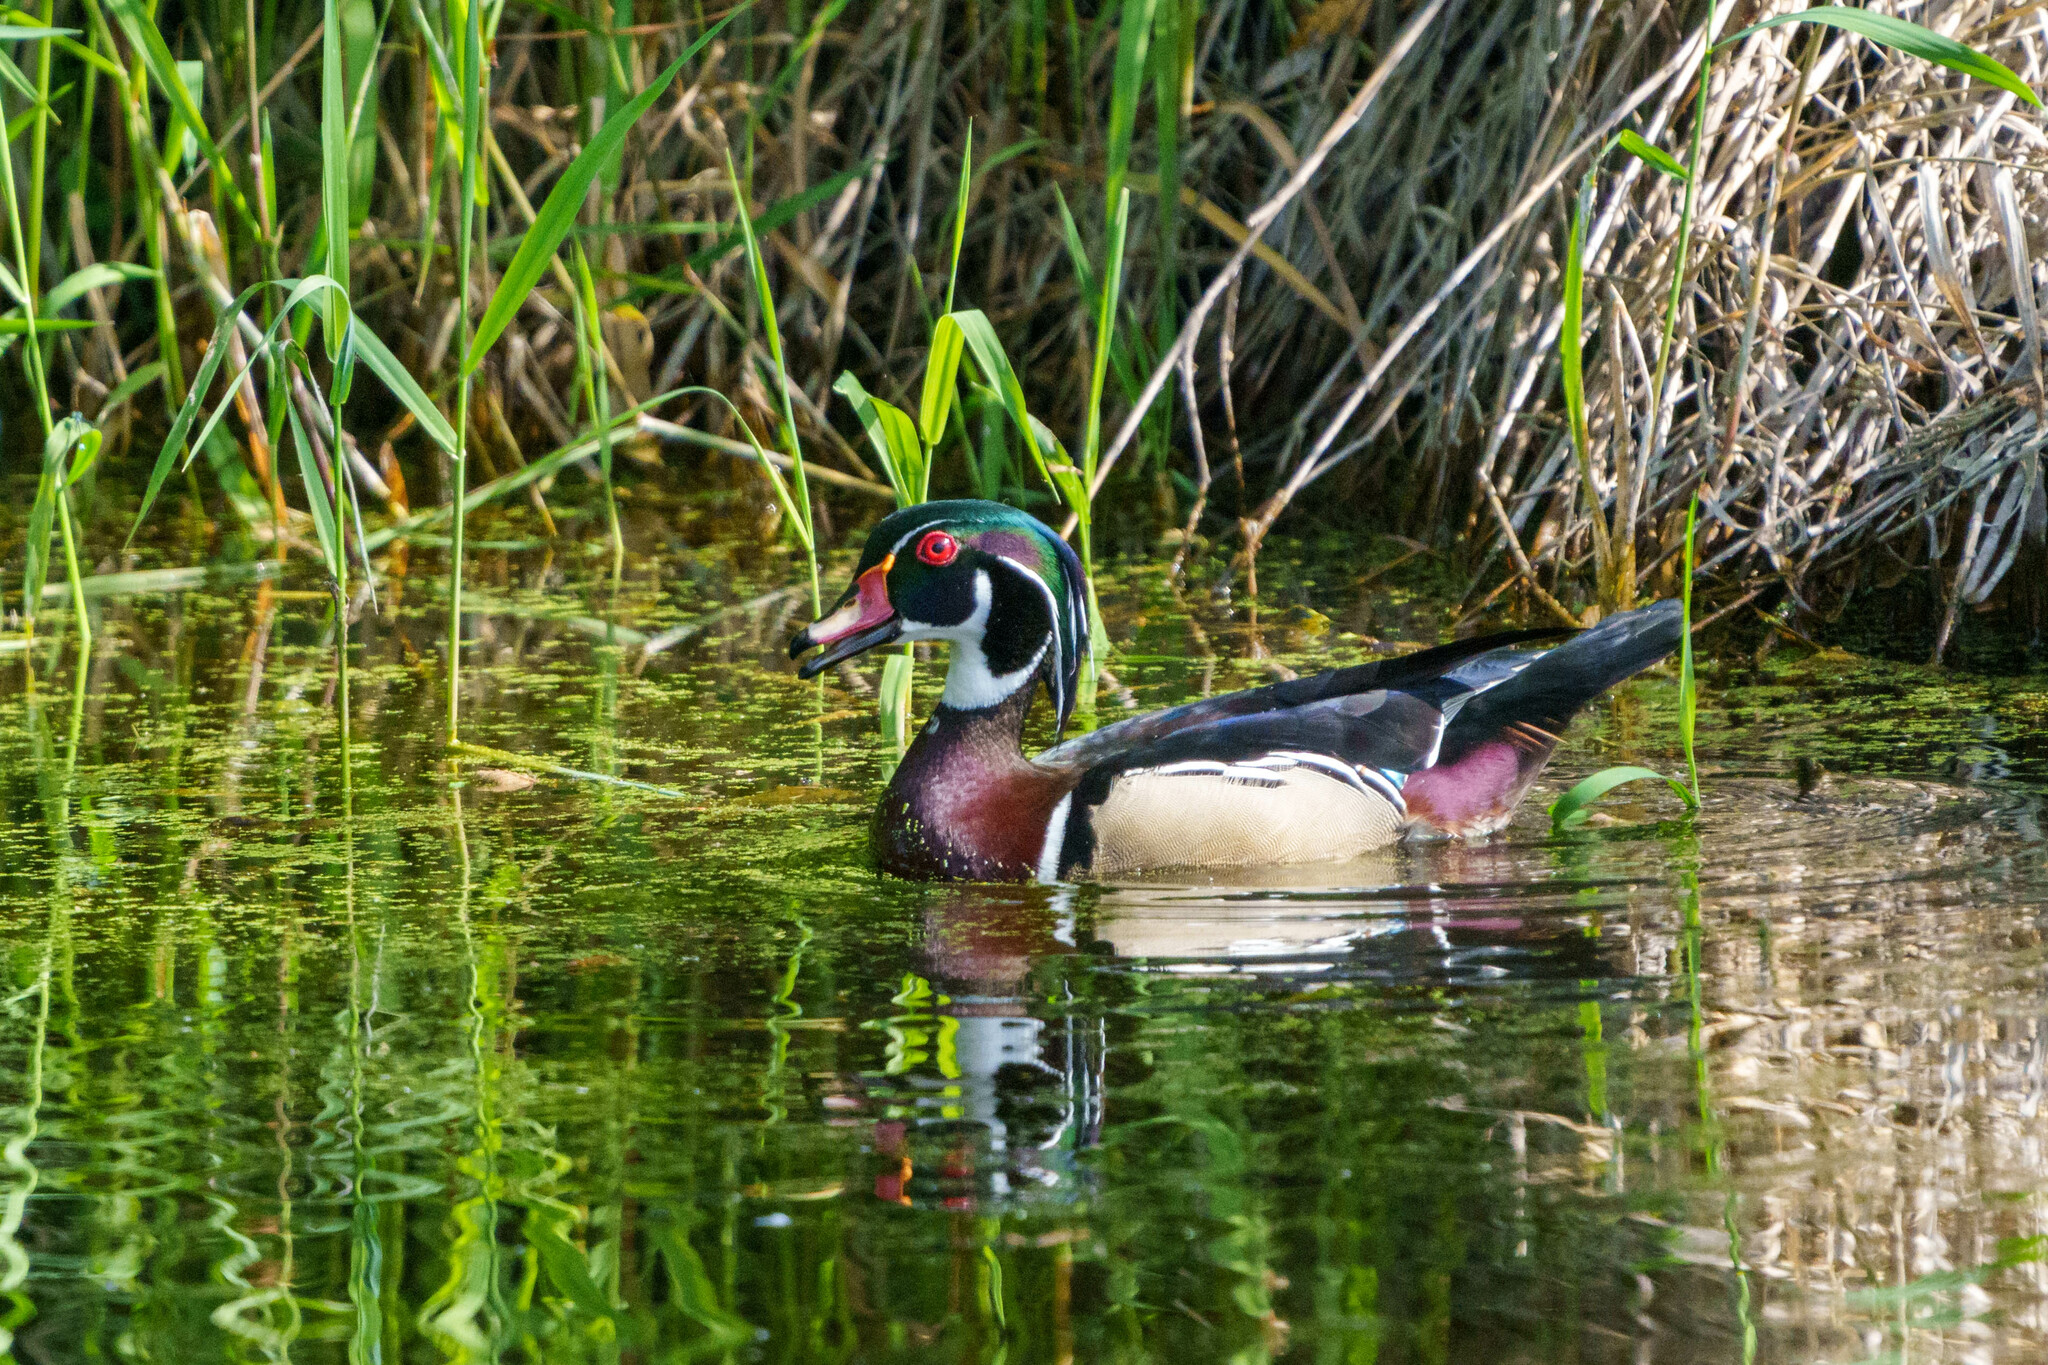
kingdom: Animalia
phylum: Chordata
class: Aves
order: Anseriformes
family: Anatidae
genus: Aix
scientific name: Aix sponsa
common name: Wood duck
